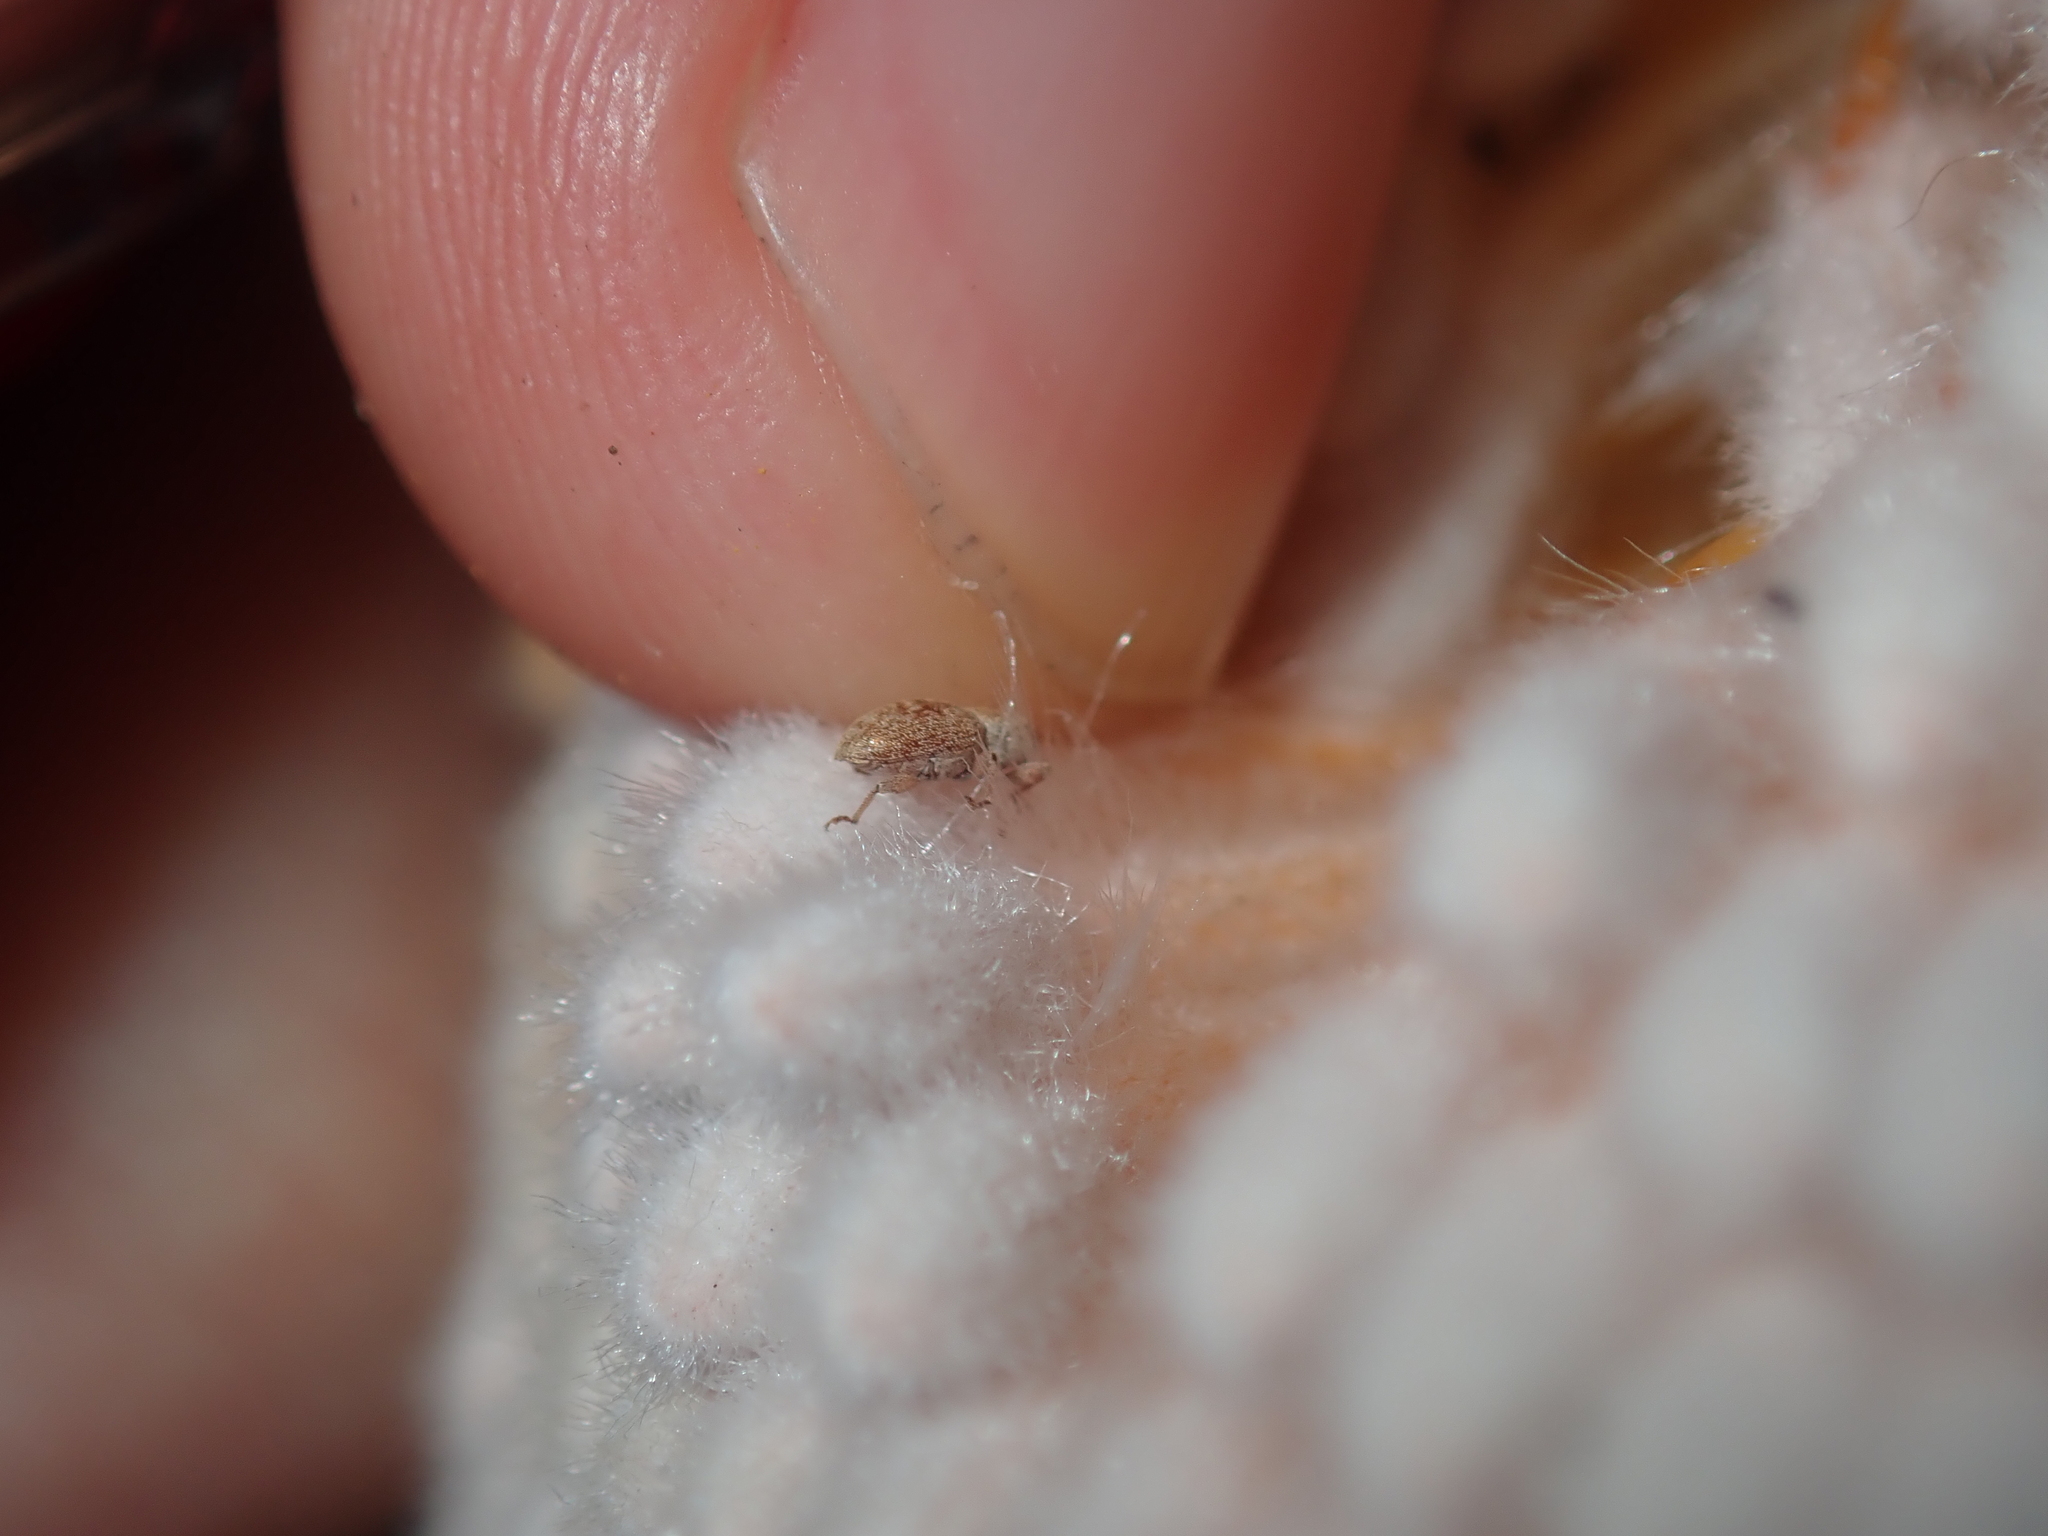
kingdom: Animalia
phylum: Arthropoda
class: Insecta
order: Coleoptera
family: Curculionidae
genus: Ochrophoebe
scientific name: Ochrophoebe
